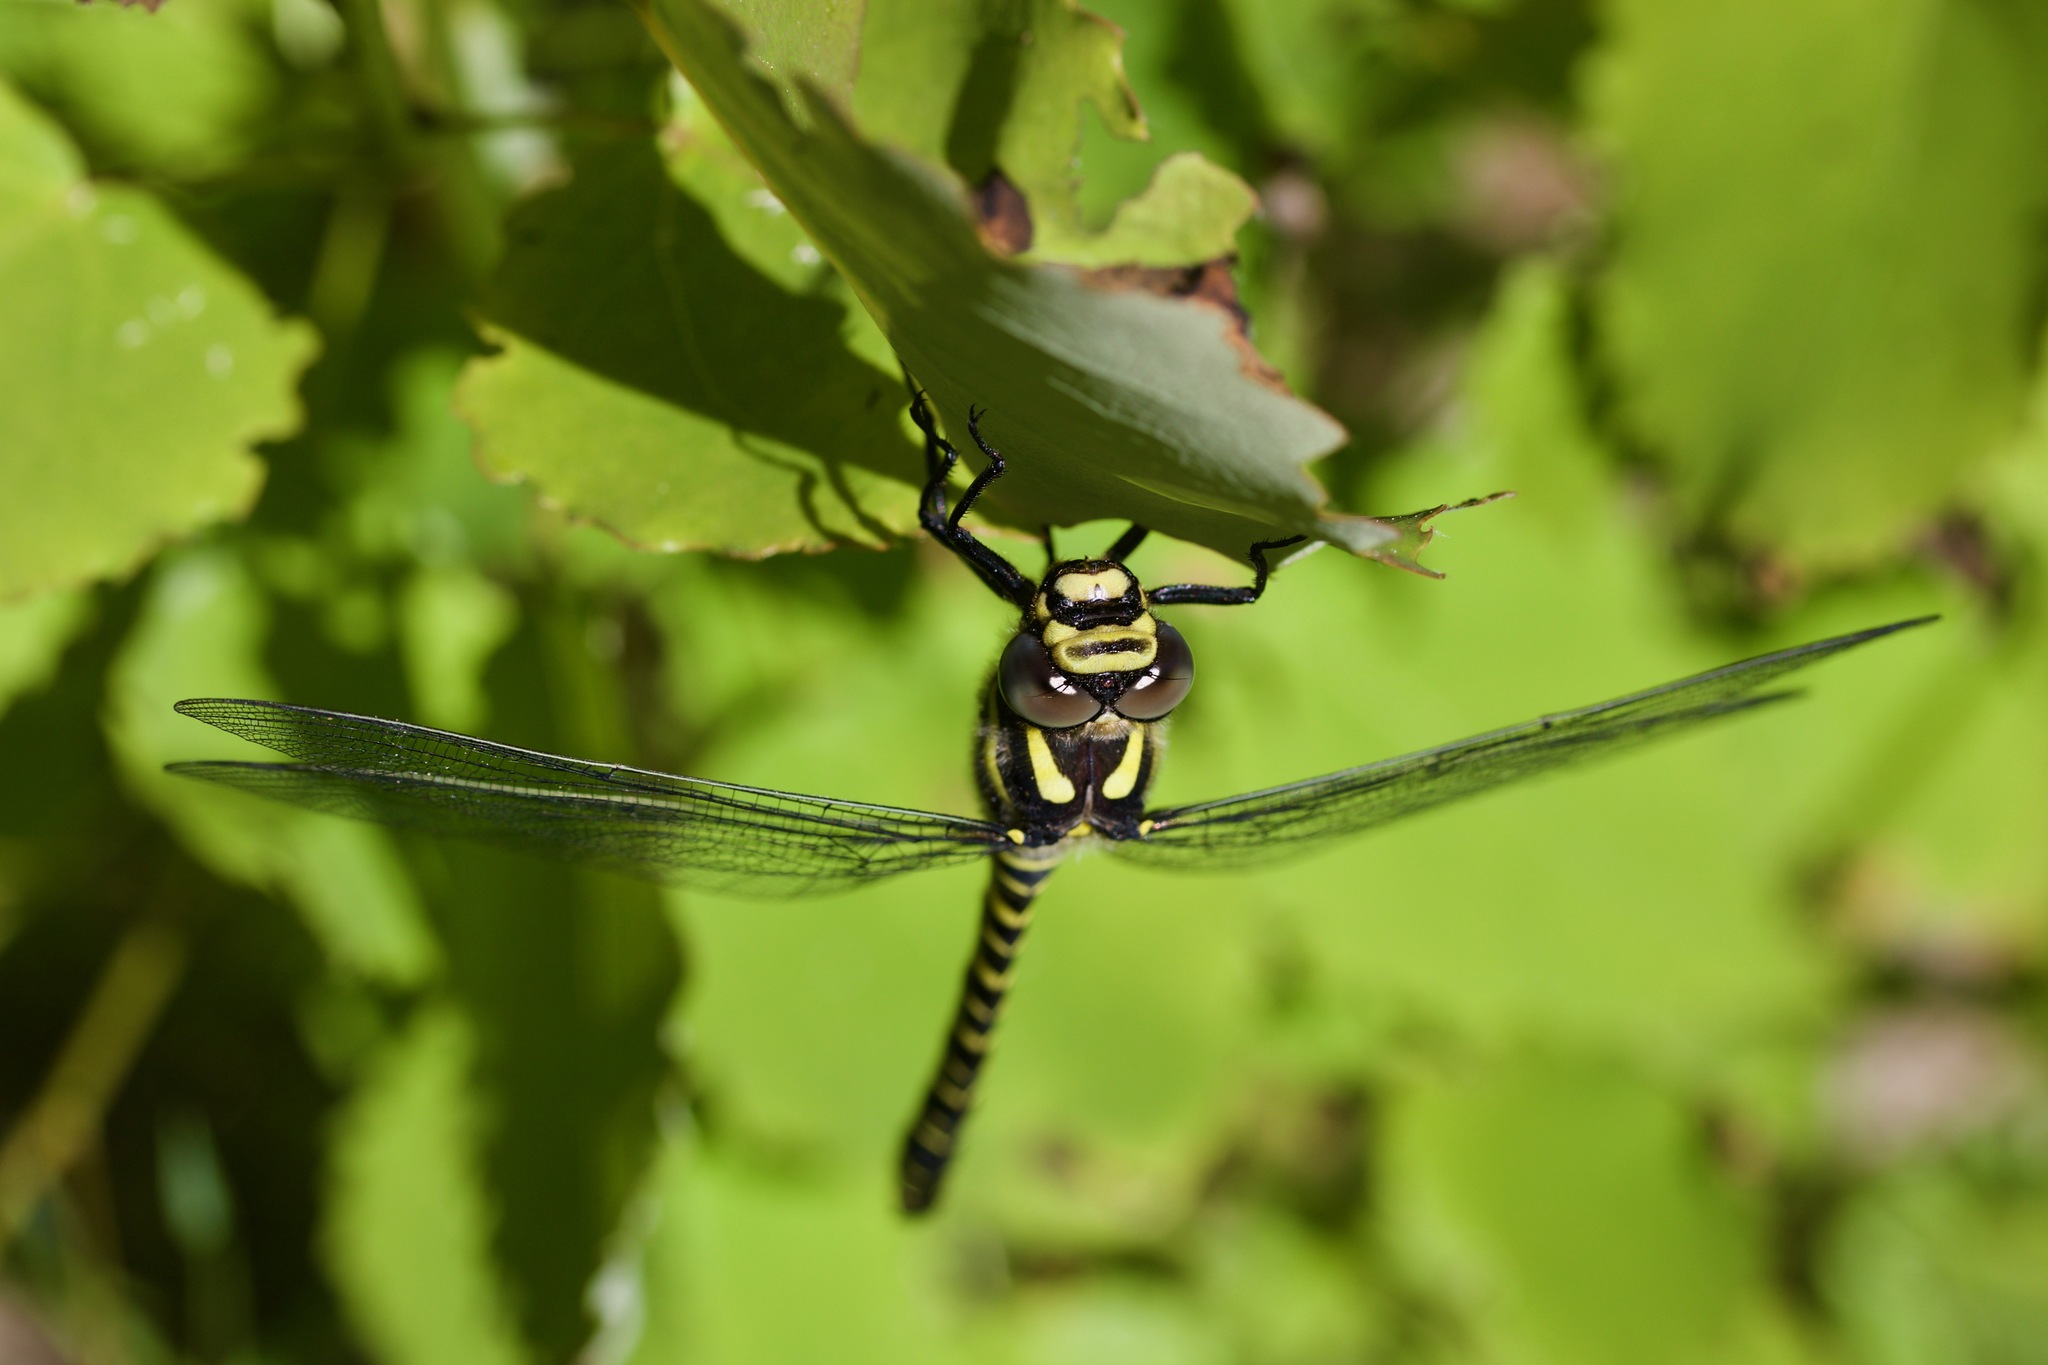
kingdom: Animalia
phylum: Arthropoda
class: Insecta
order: Odonata
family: Cordulegastridae
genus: Cordulegaster
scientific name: Cordulegaster boltonii
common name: Golden-ringed dragonfly
